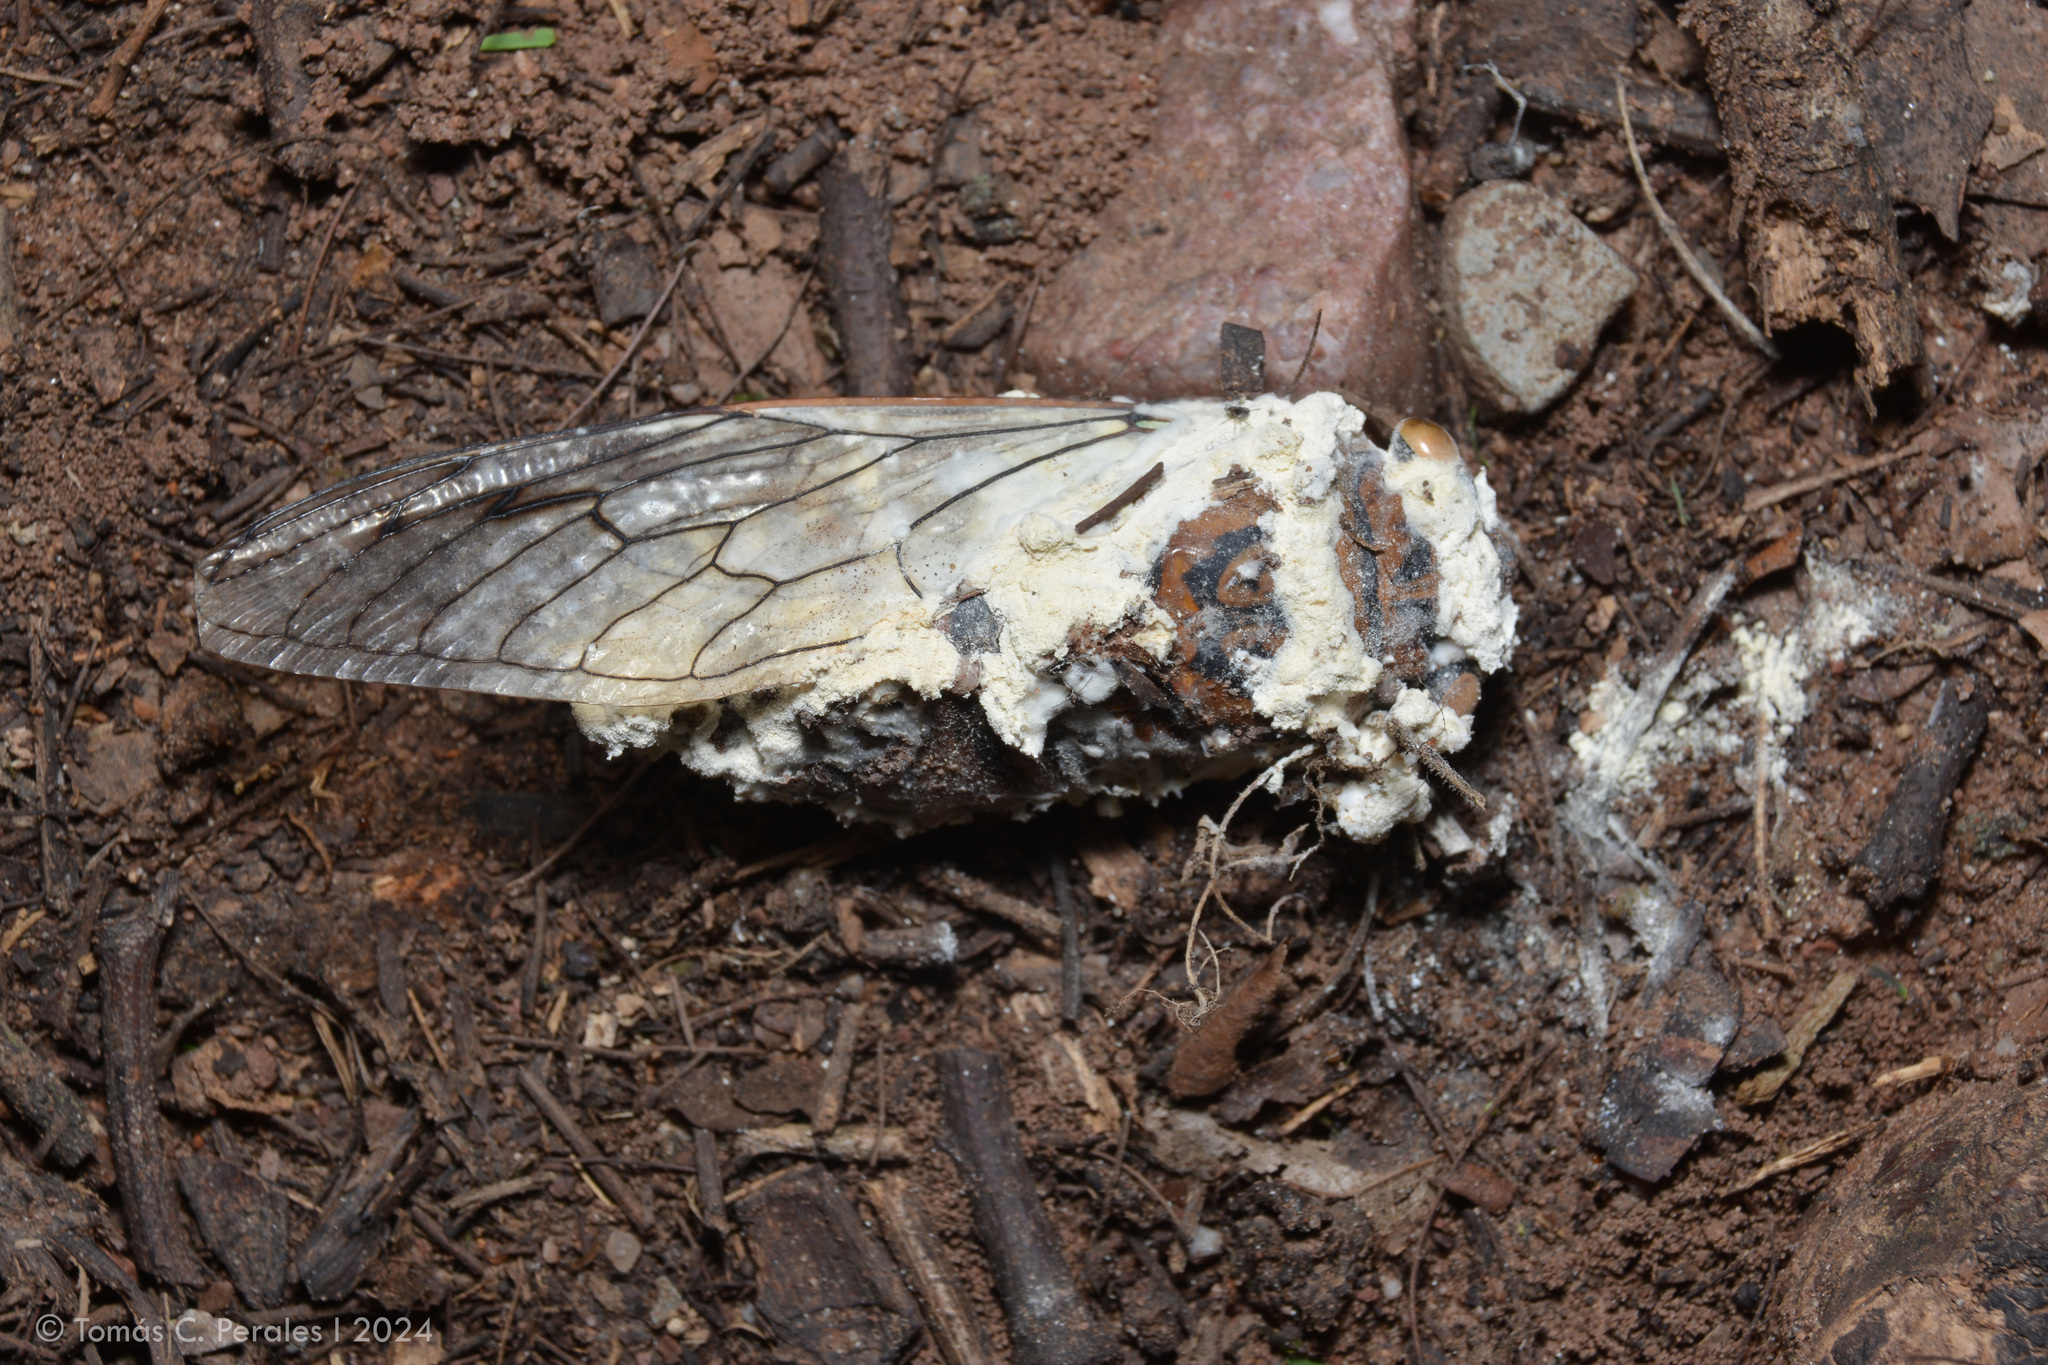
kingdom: Fungi
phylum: Ascomycota
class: Sordariomycetes
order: Hypocreales
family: Cordycipitaceae
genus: Beauveria
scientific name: Beauveria bassiana
